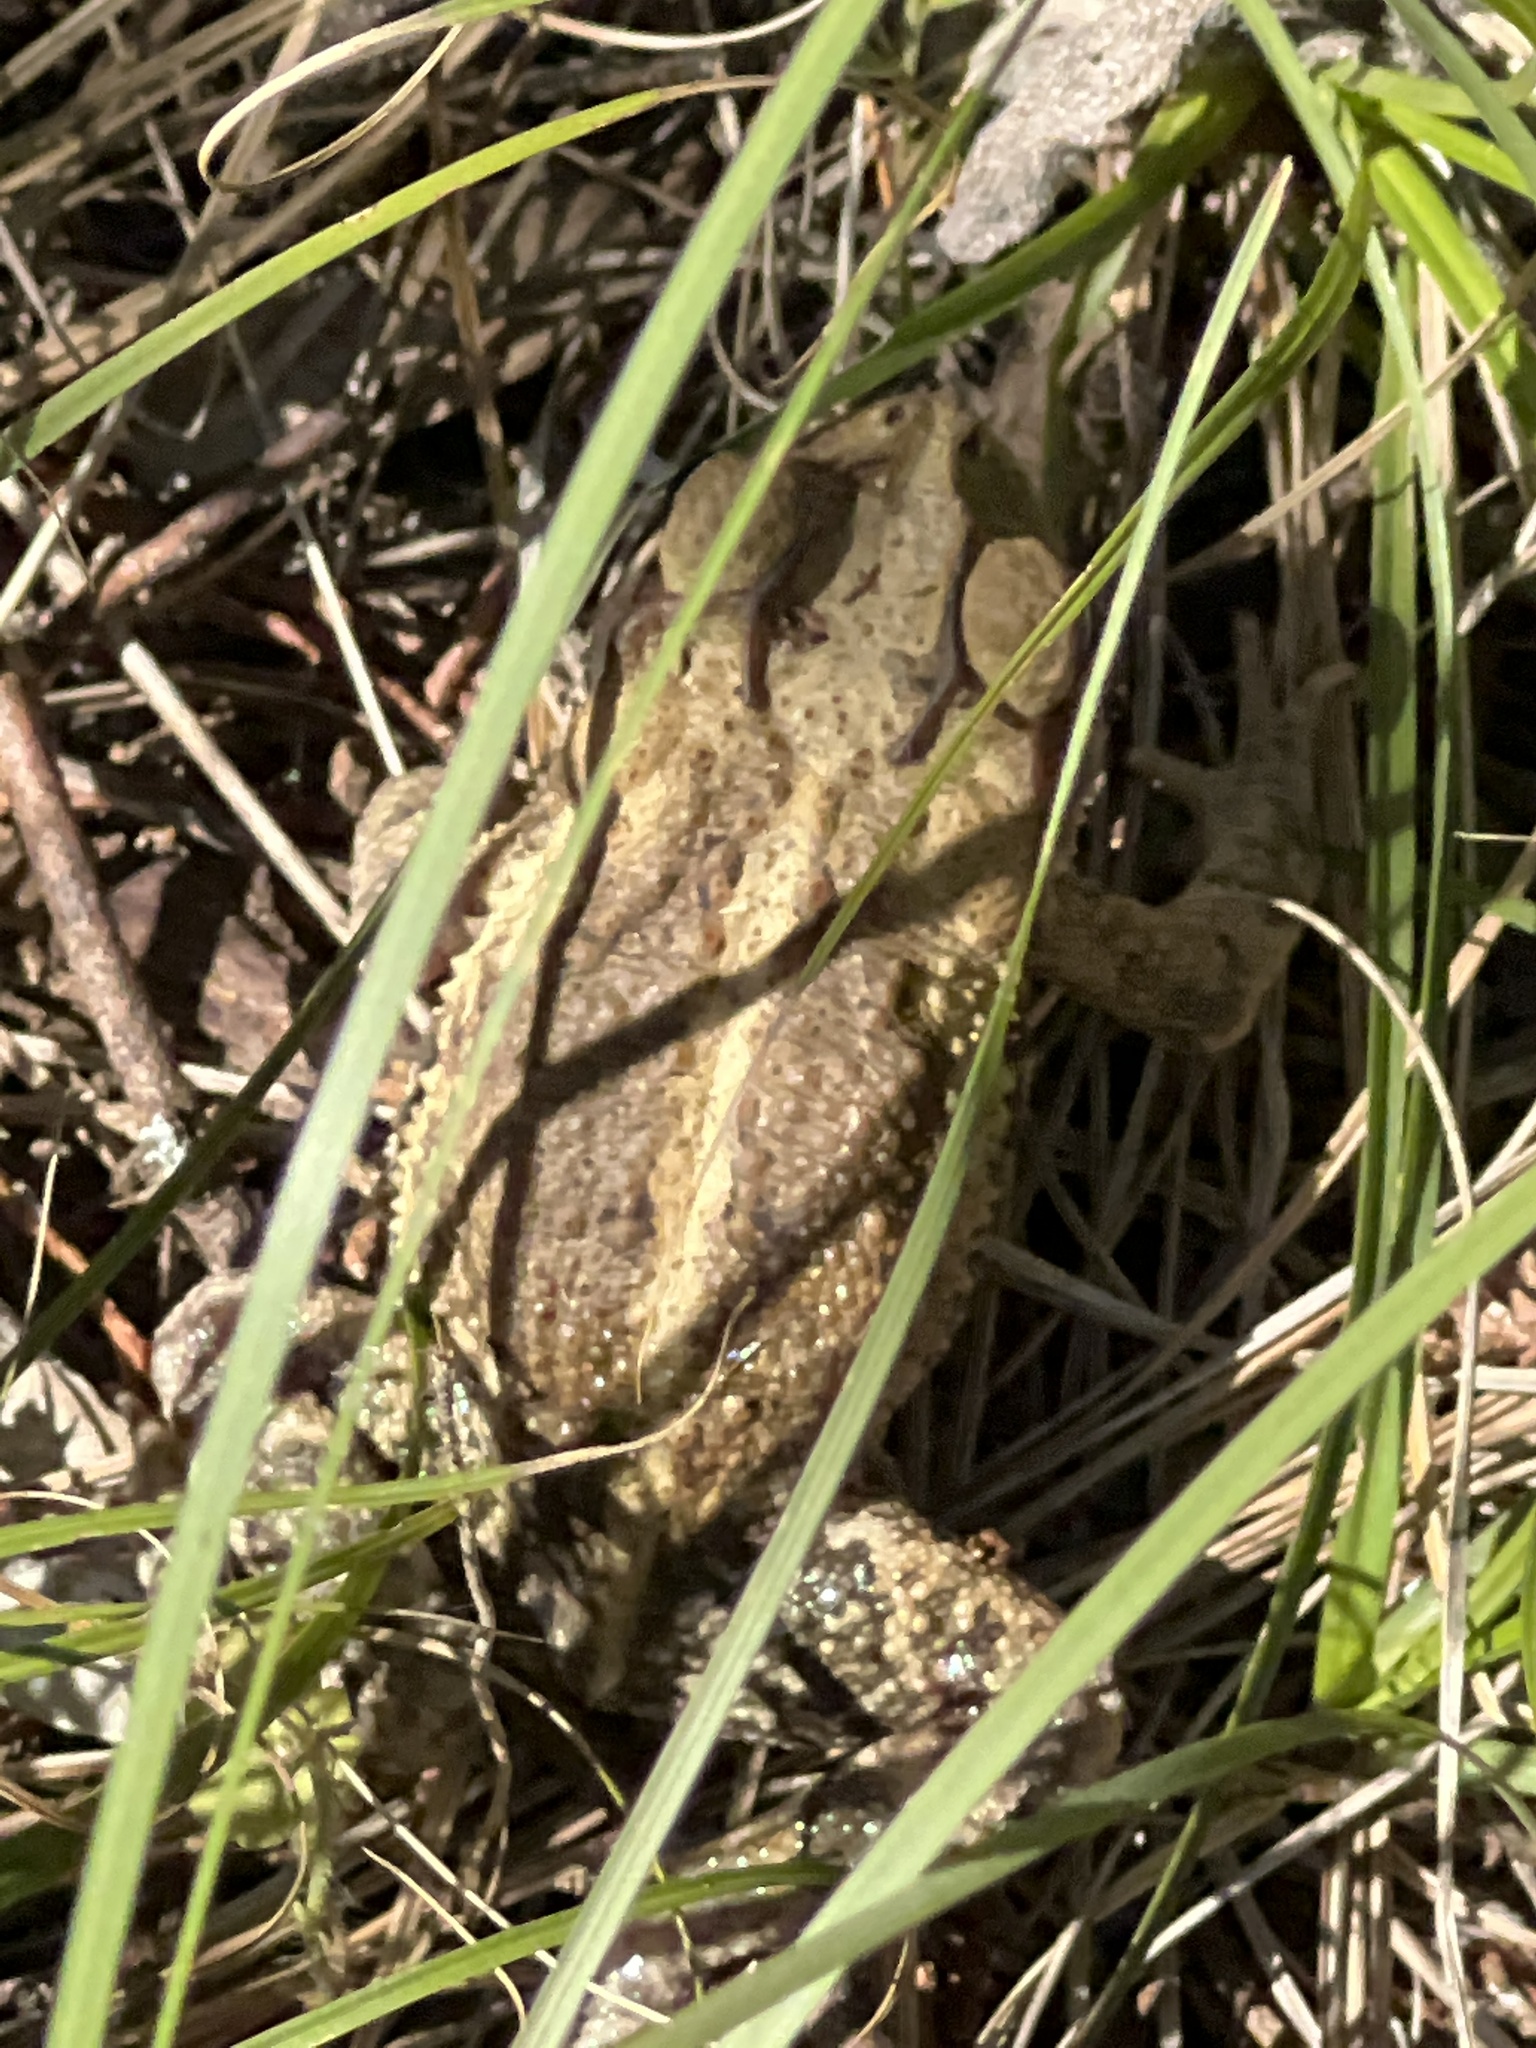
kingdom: Animalia
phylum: Chordata
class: Amphibia
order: Anura
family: Bufonidae
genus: Incilius
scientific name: Incilius nebulifer
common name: Gulf coast toad
